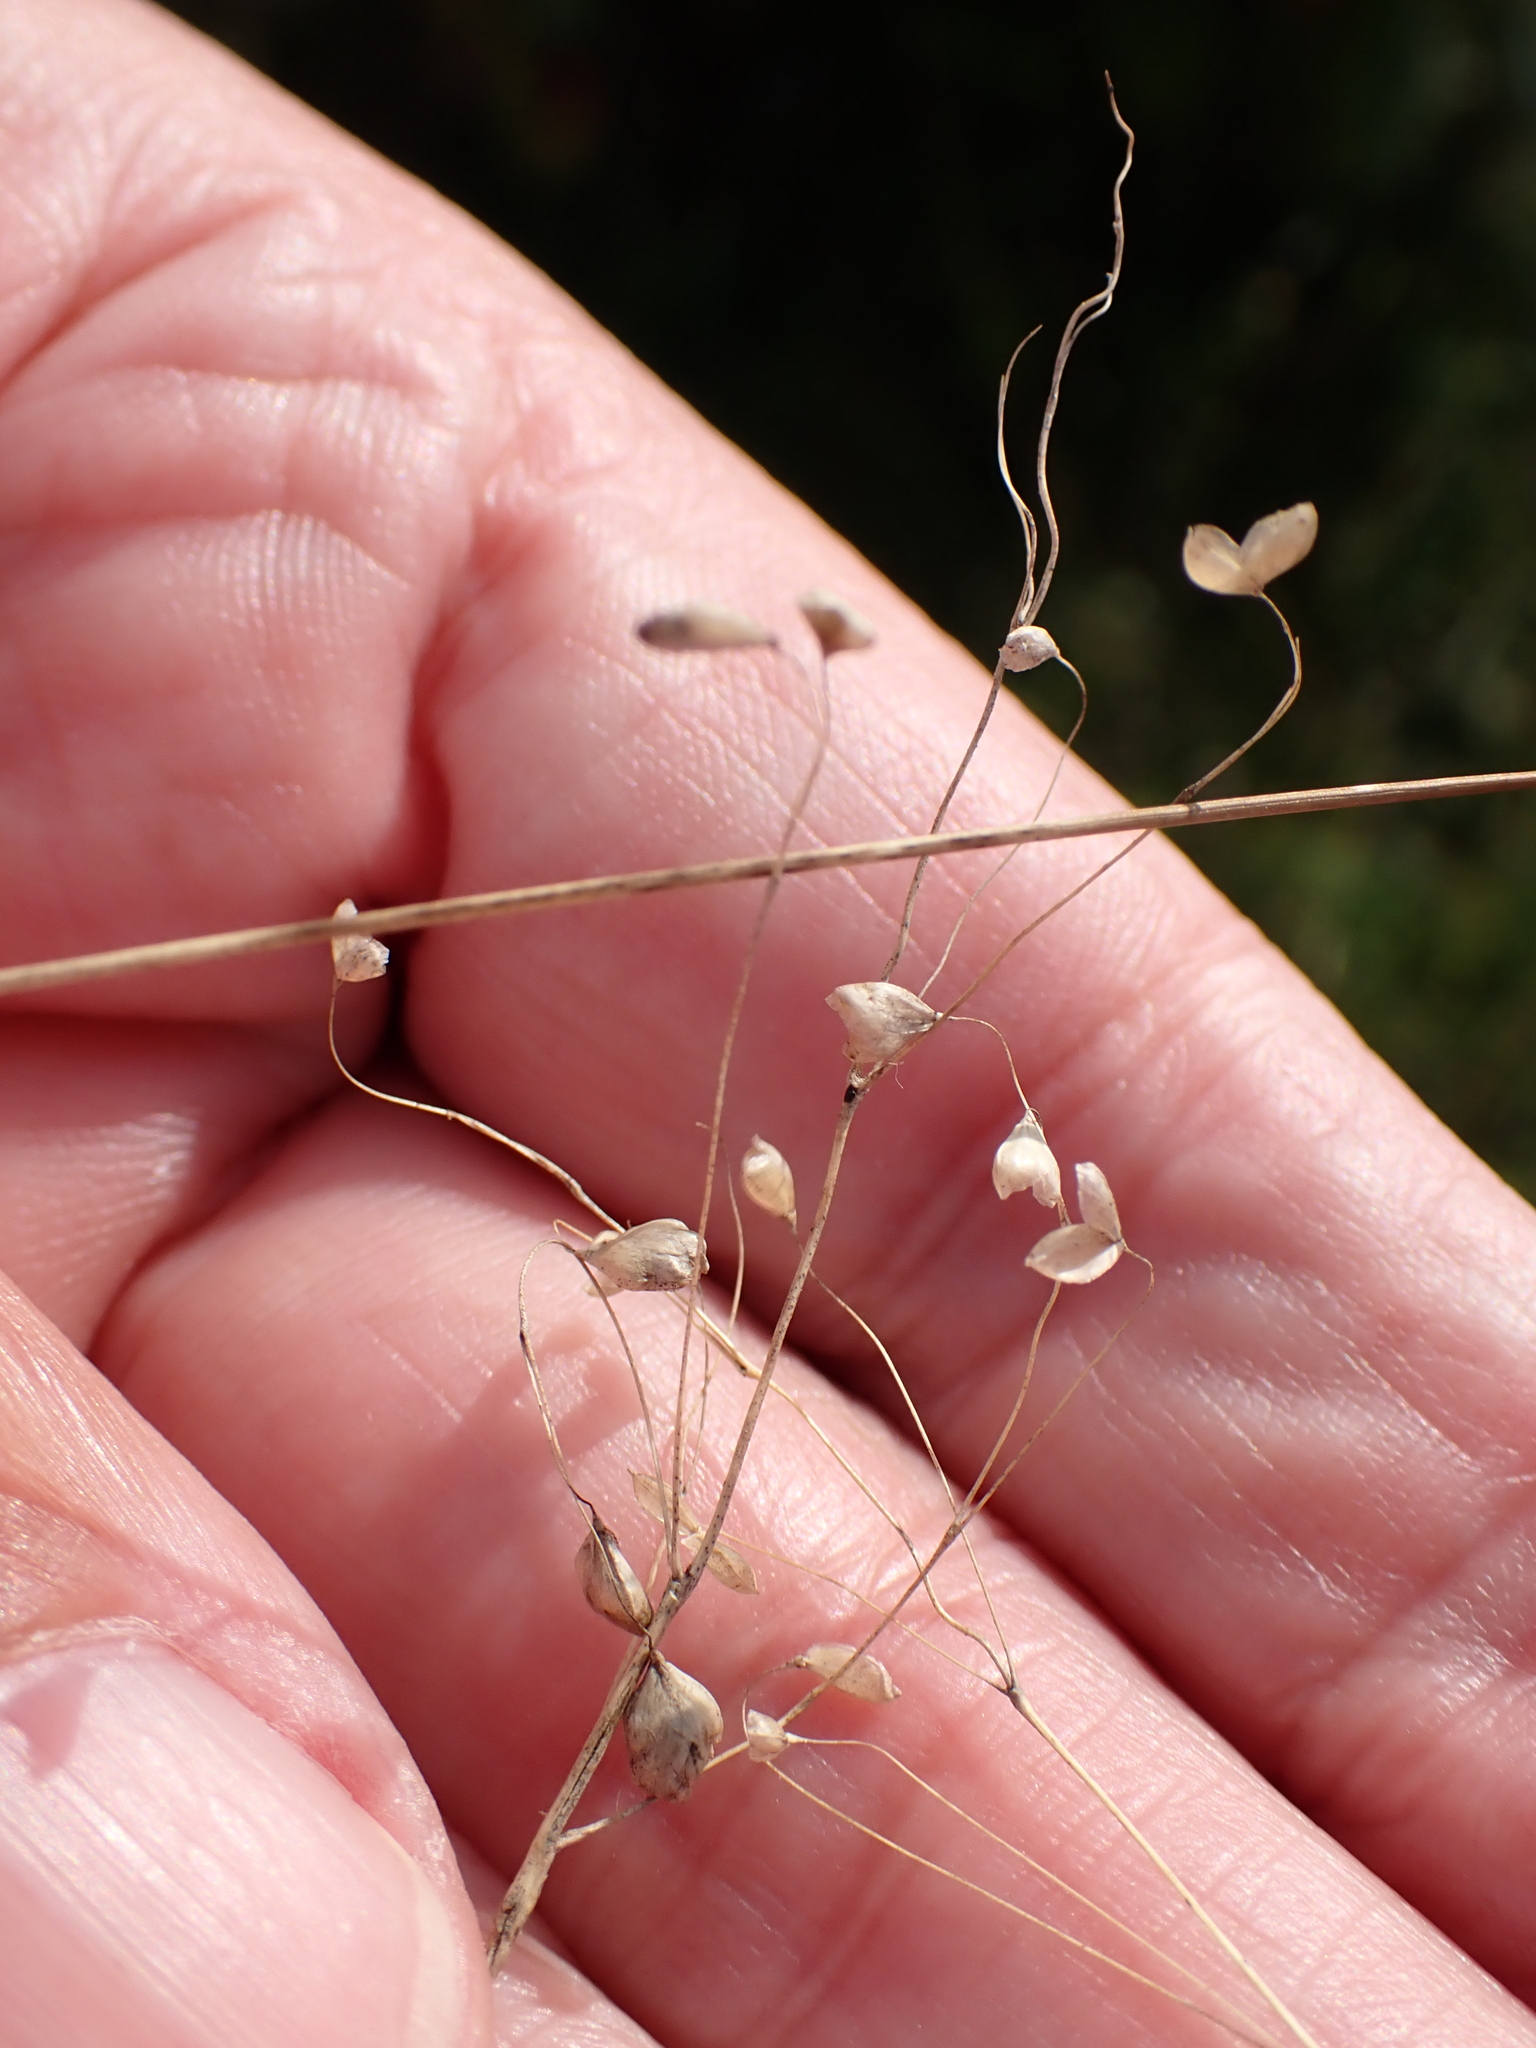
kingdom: Plantae
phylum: Tracheophyta
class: Liliopsida
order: Poales
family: Poaceae
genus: Briza
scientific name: Briza media
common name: Quaking grass
